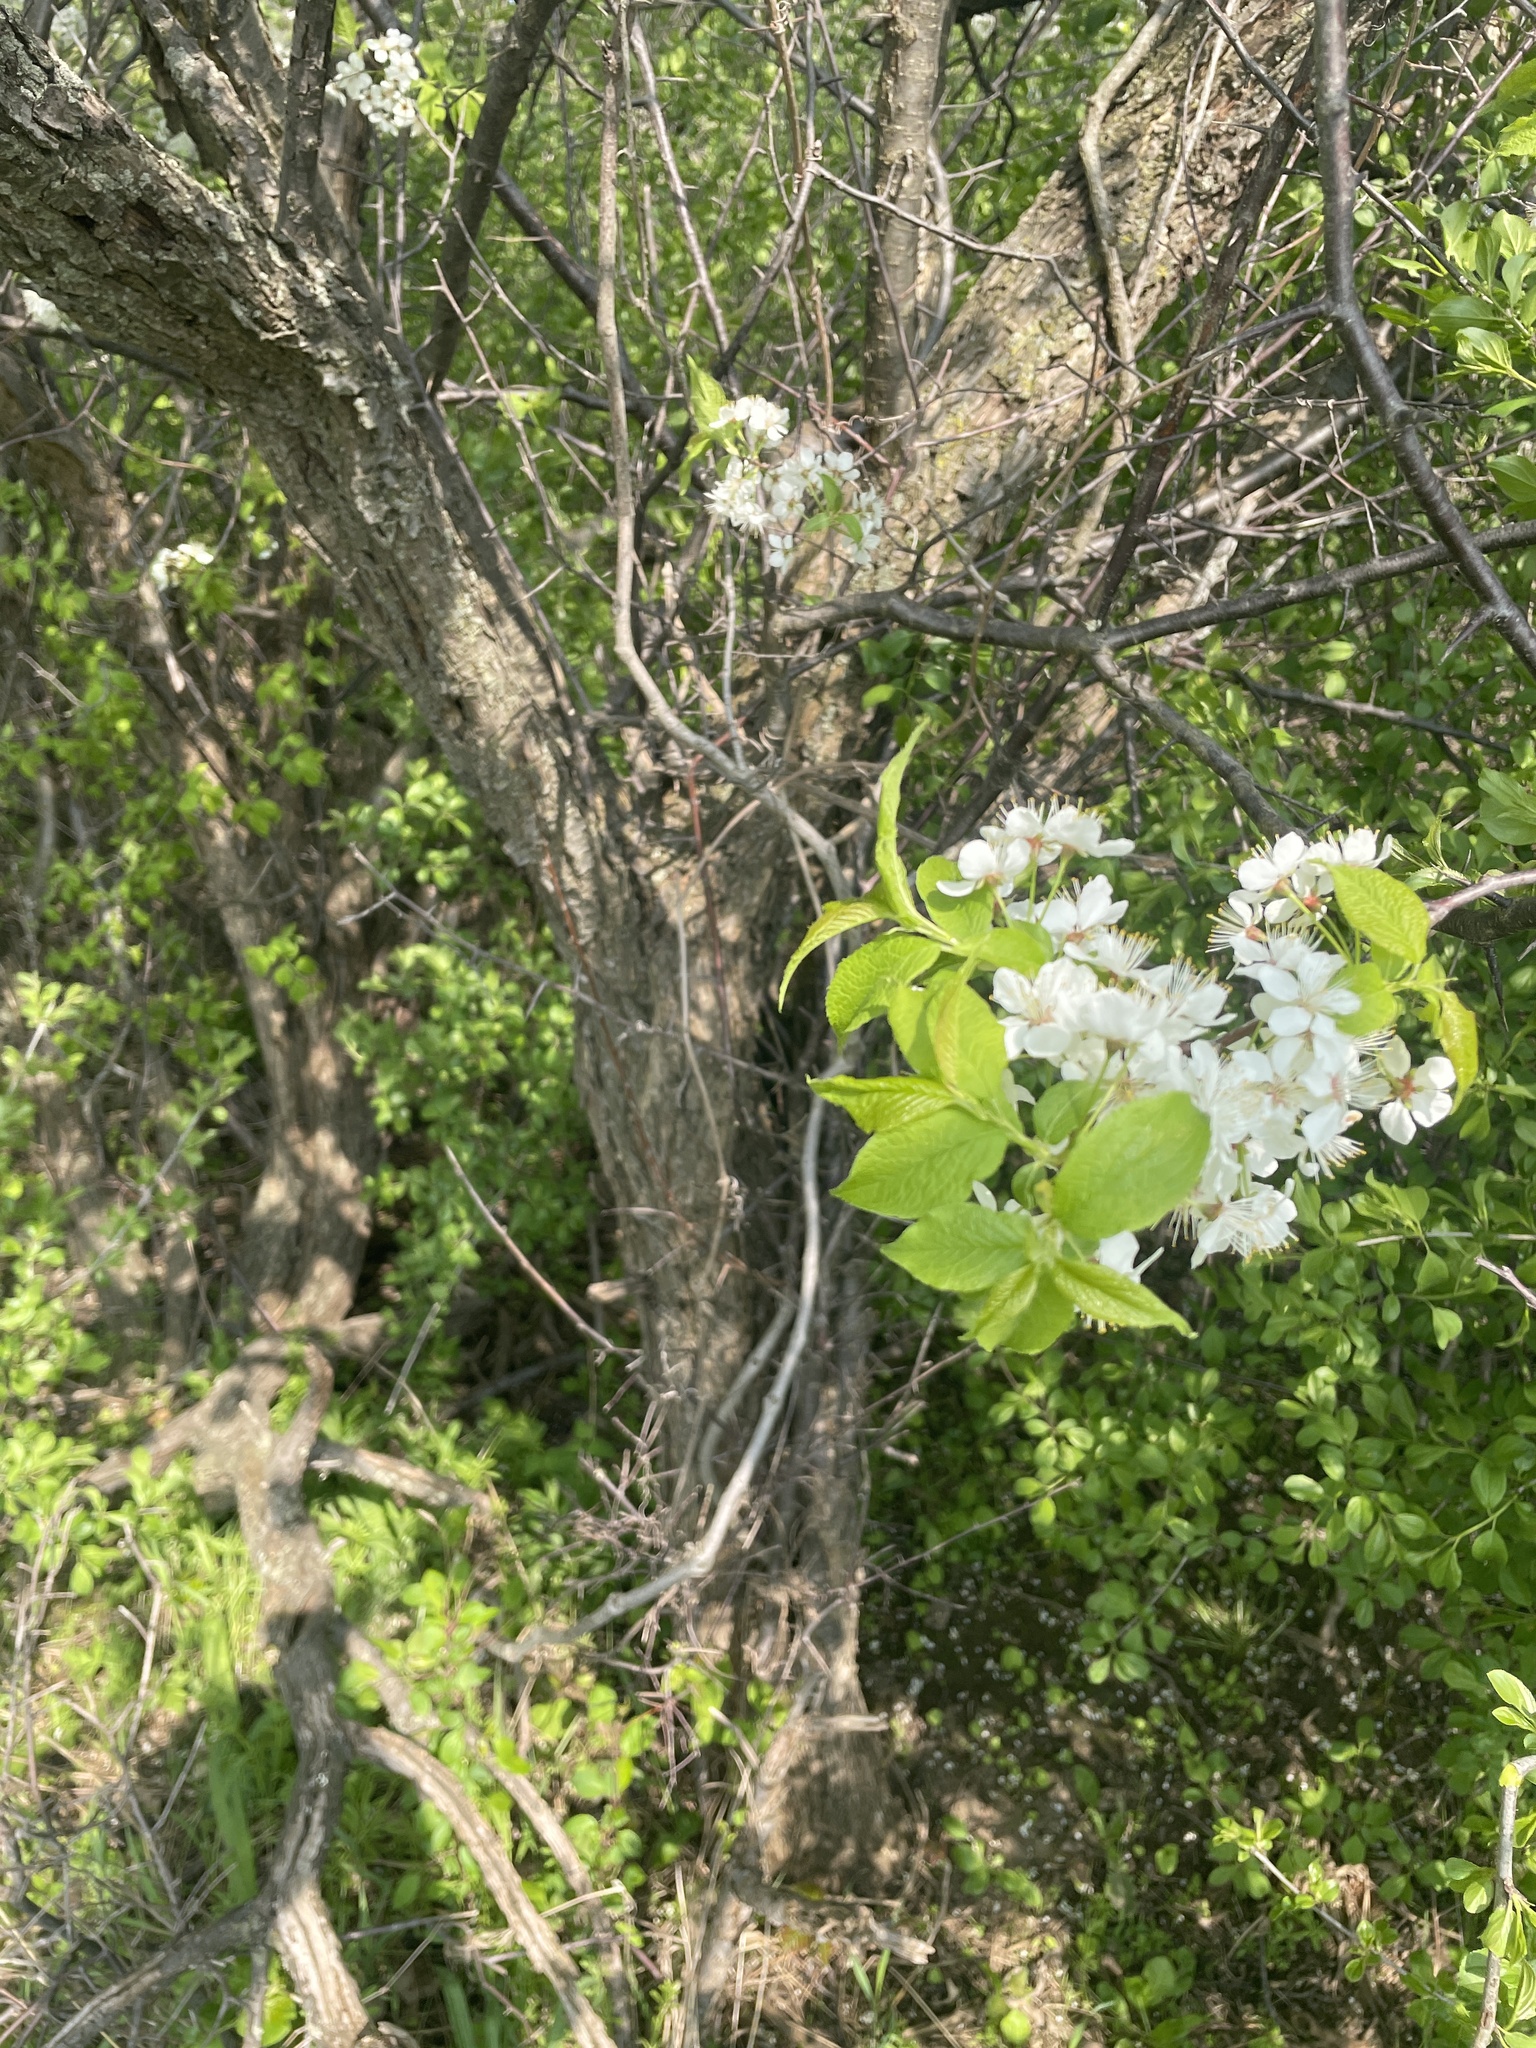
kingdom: Plantae
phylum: Tracheophyta
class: Magnoliopsida
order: Rosales
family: Rosaceae
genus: Prunus
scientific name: Prunus americana
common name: American plum
